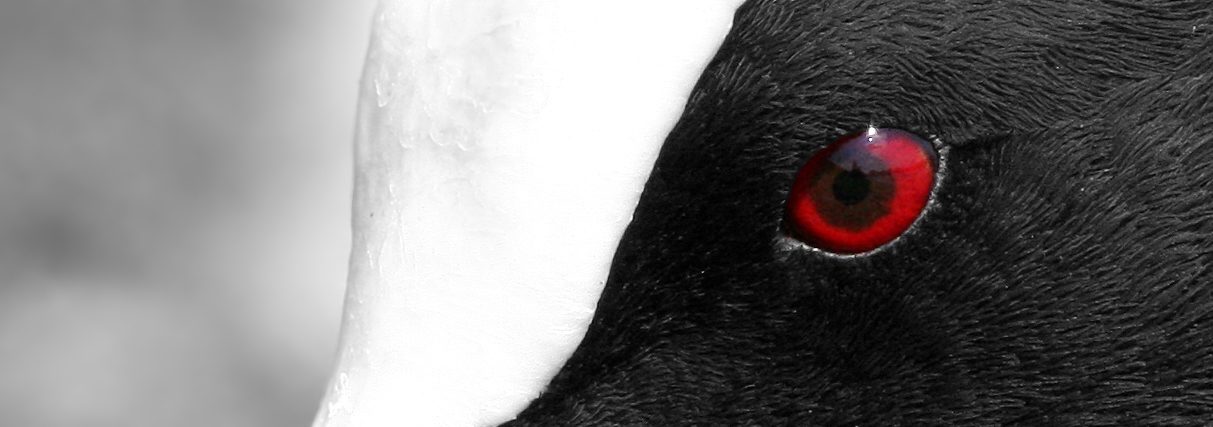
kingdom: Animalia
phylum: Chordata
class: Aves
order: Gruiformes
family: Rallidae
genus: Fulica
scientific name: Fulica atra
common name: Eurasian coot
